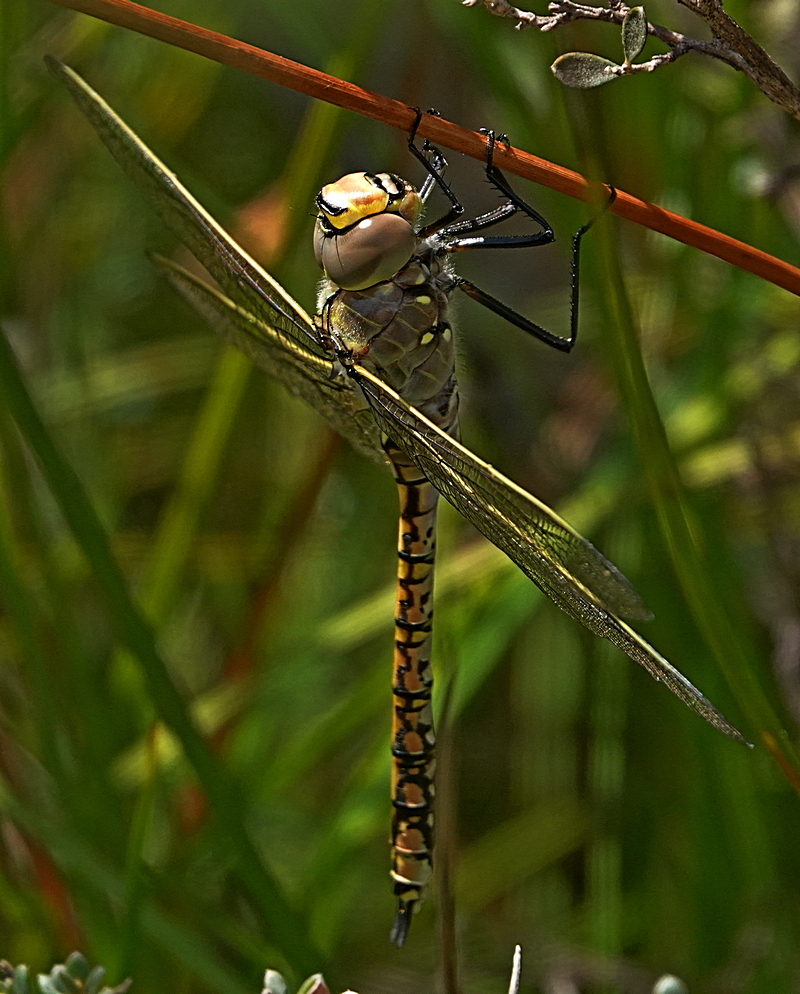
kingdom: Animalia
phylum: Arthropoda
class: Insecta
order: Odonata
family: Aeshnidae
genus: Anax
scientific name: Anax papuensis
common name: Australian emperor
